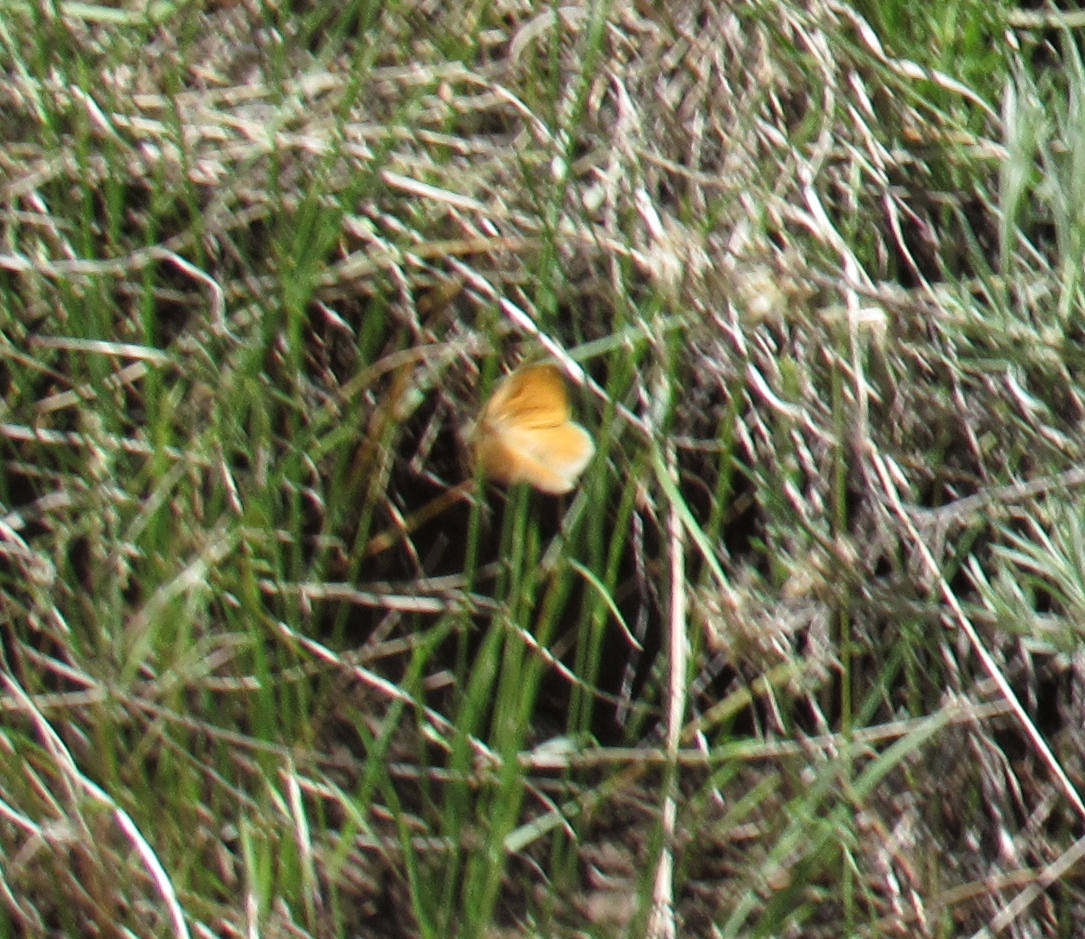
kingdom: Animalia
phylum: Arthropoda
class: Insecta
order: Lepidoptera
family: Nymphalidae
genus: Coenonympha
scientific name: Coenonympha california
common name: Common ringlet
